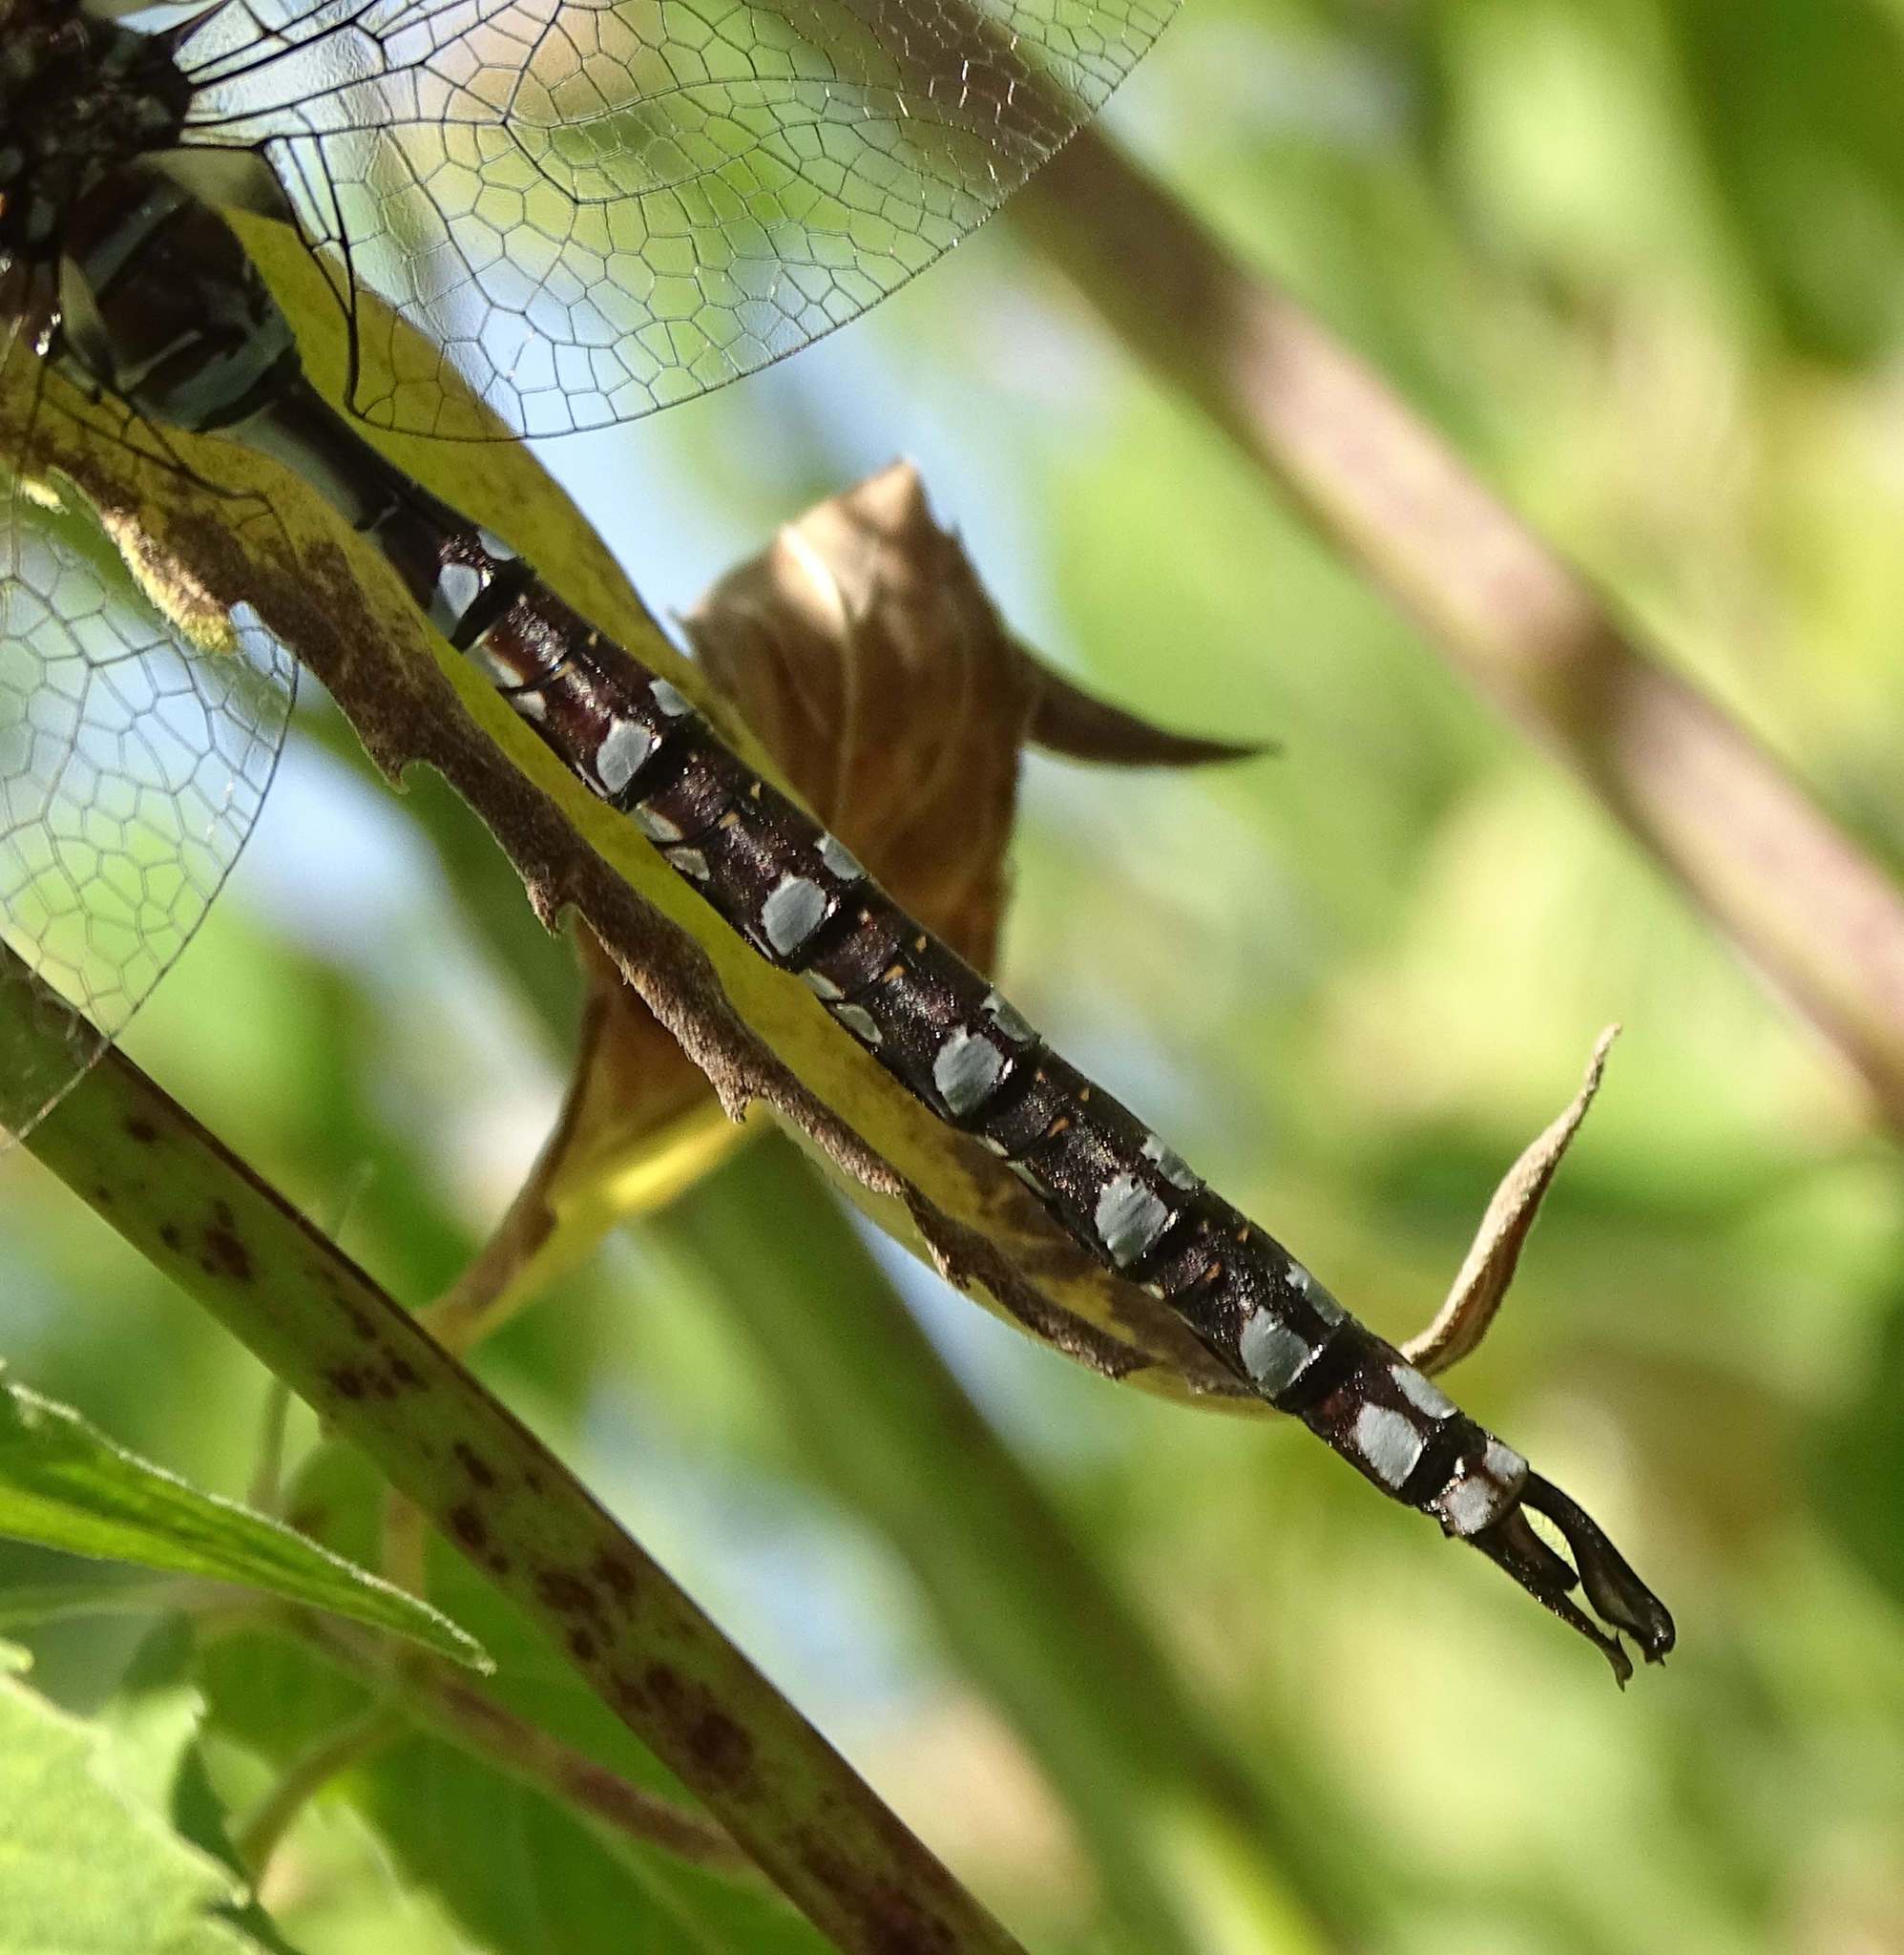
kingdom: Animalia
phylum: Arthropoda
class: Insecta
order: Odonata
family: Aeshnidae
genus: Aeshna
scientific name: Aeshna constricta
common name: Lance-tipped darner
